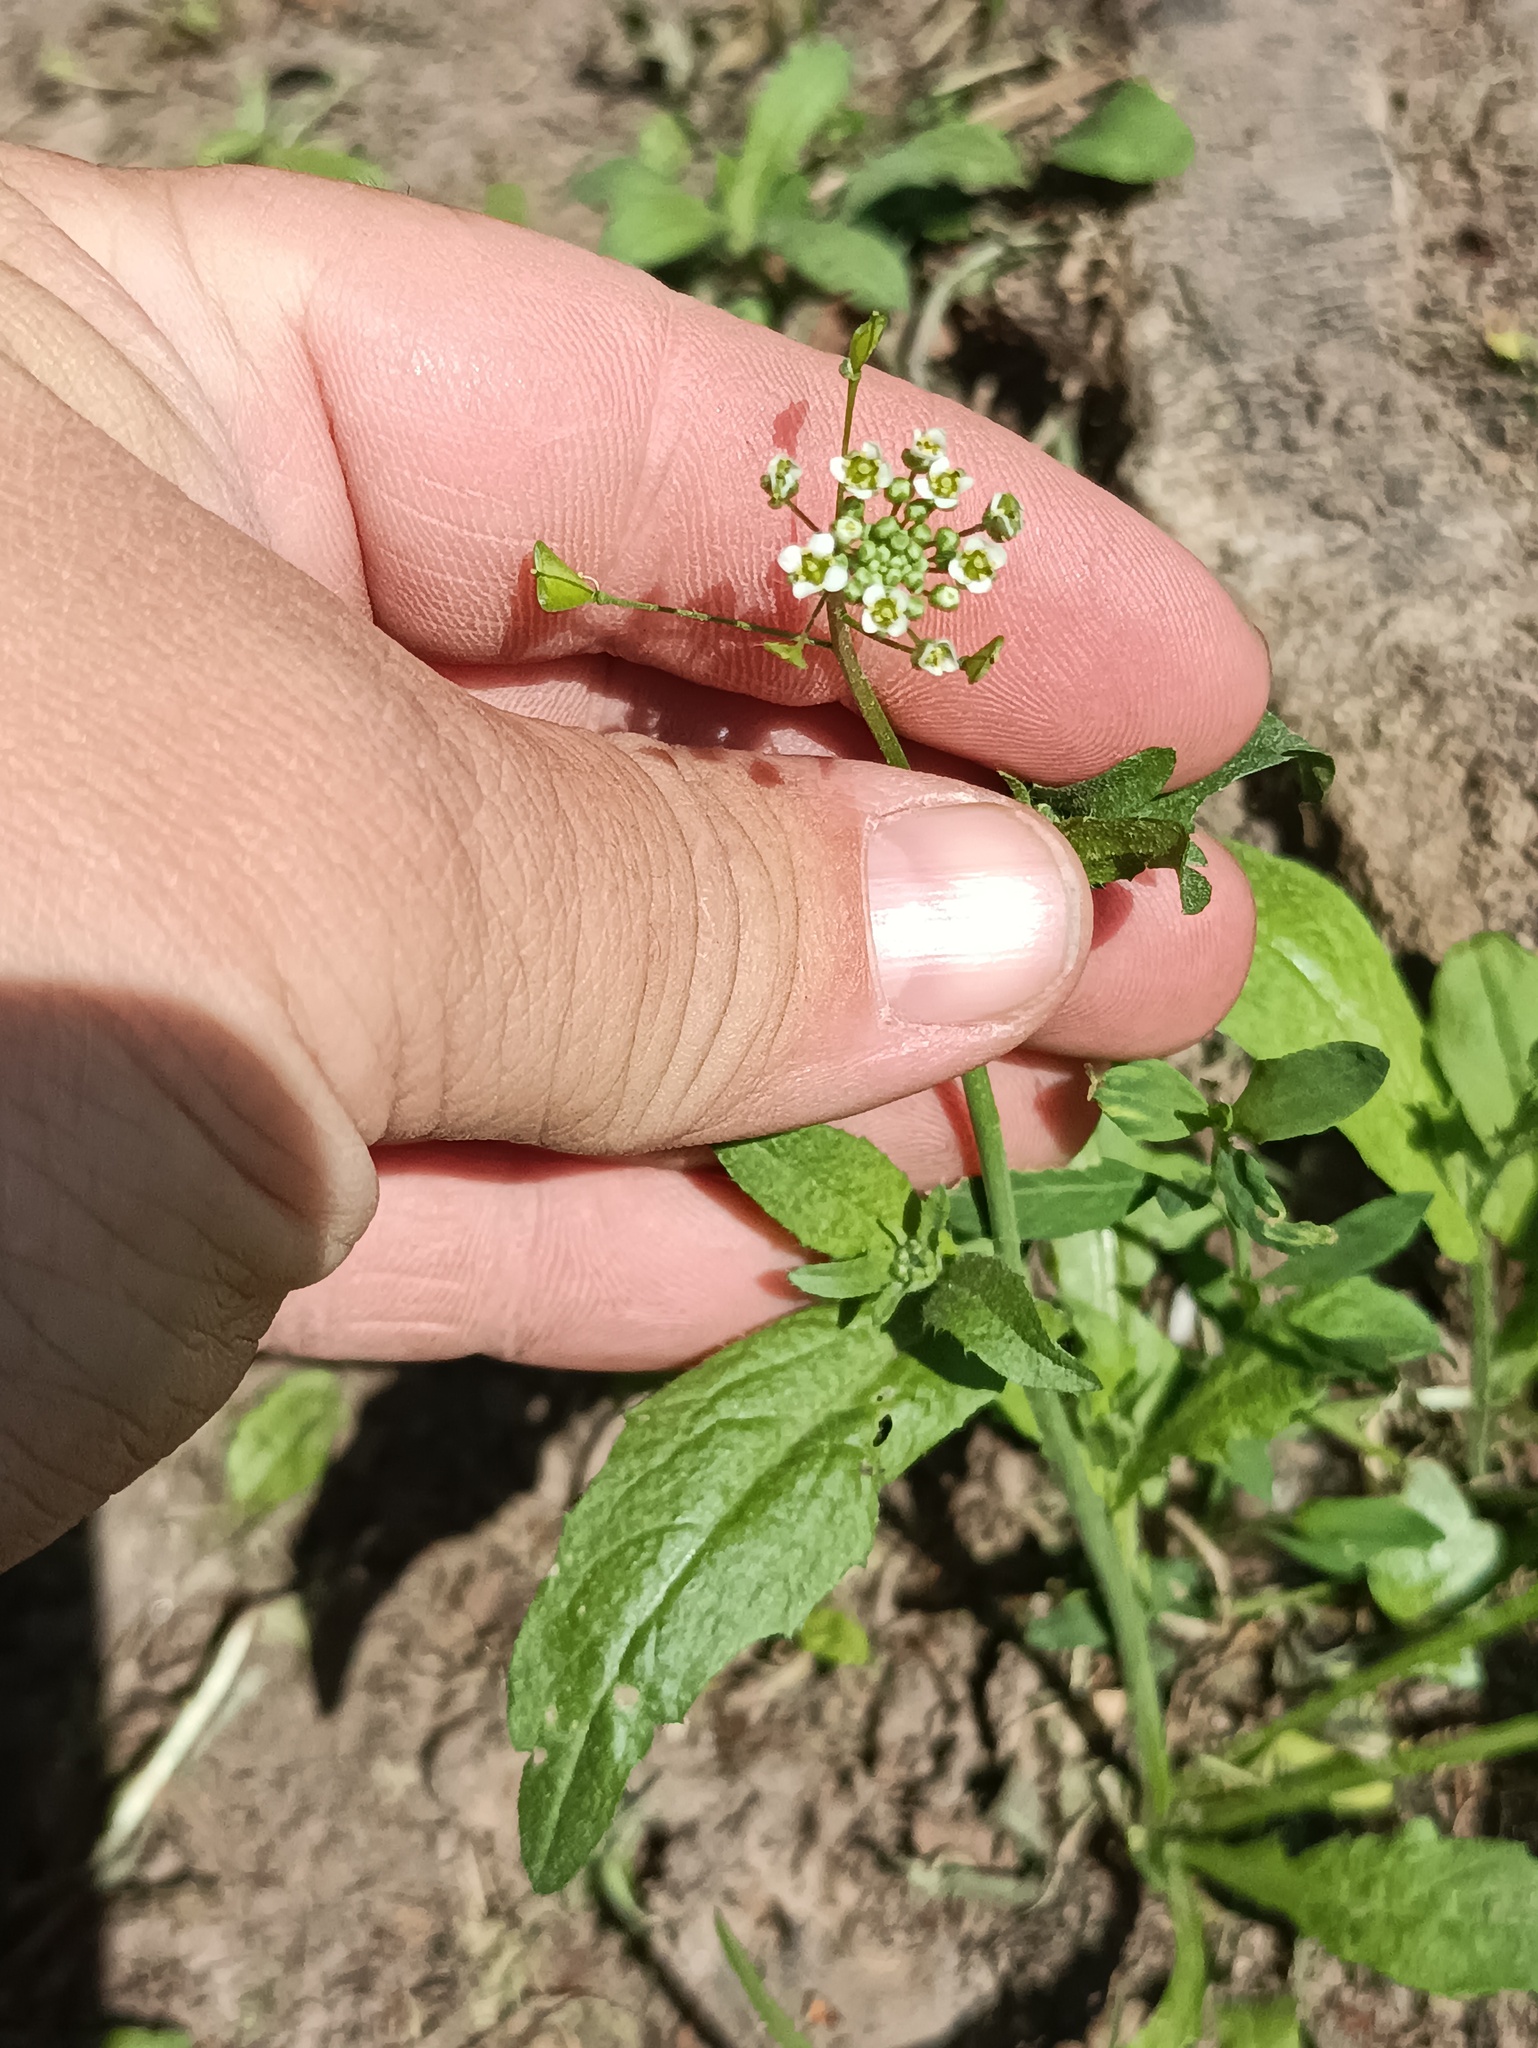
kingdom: Plantae
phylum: Tracheophyta
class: Magnoliopsida
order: Brassicales
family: Brassicaceae
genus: Capsella
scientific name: Capsella bursa-pastoris
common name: Shepherd's purse
